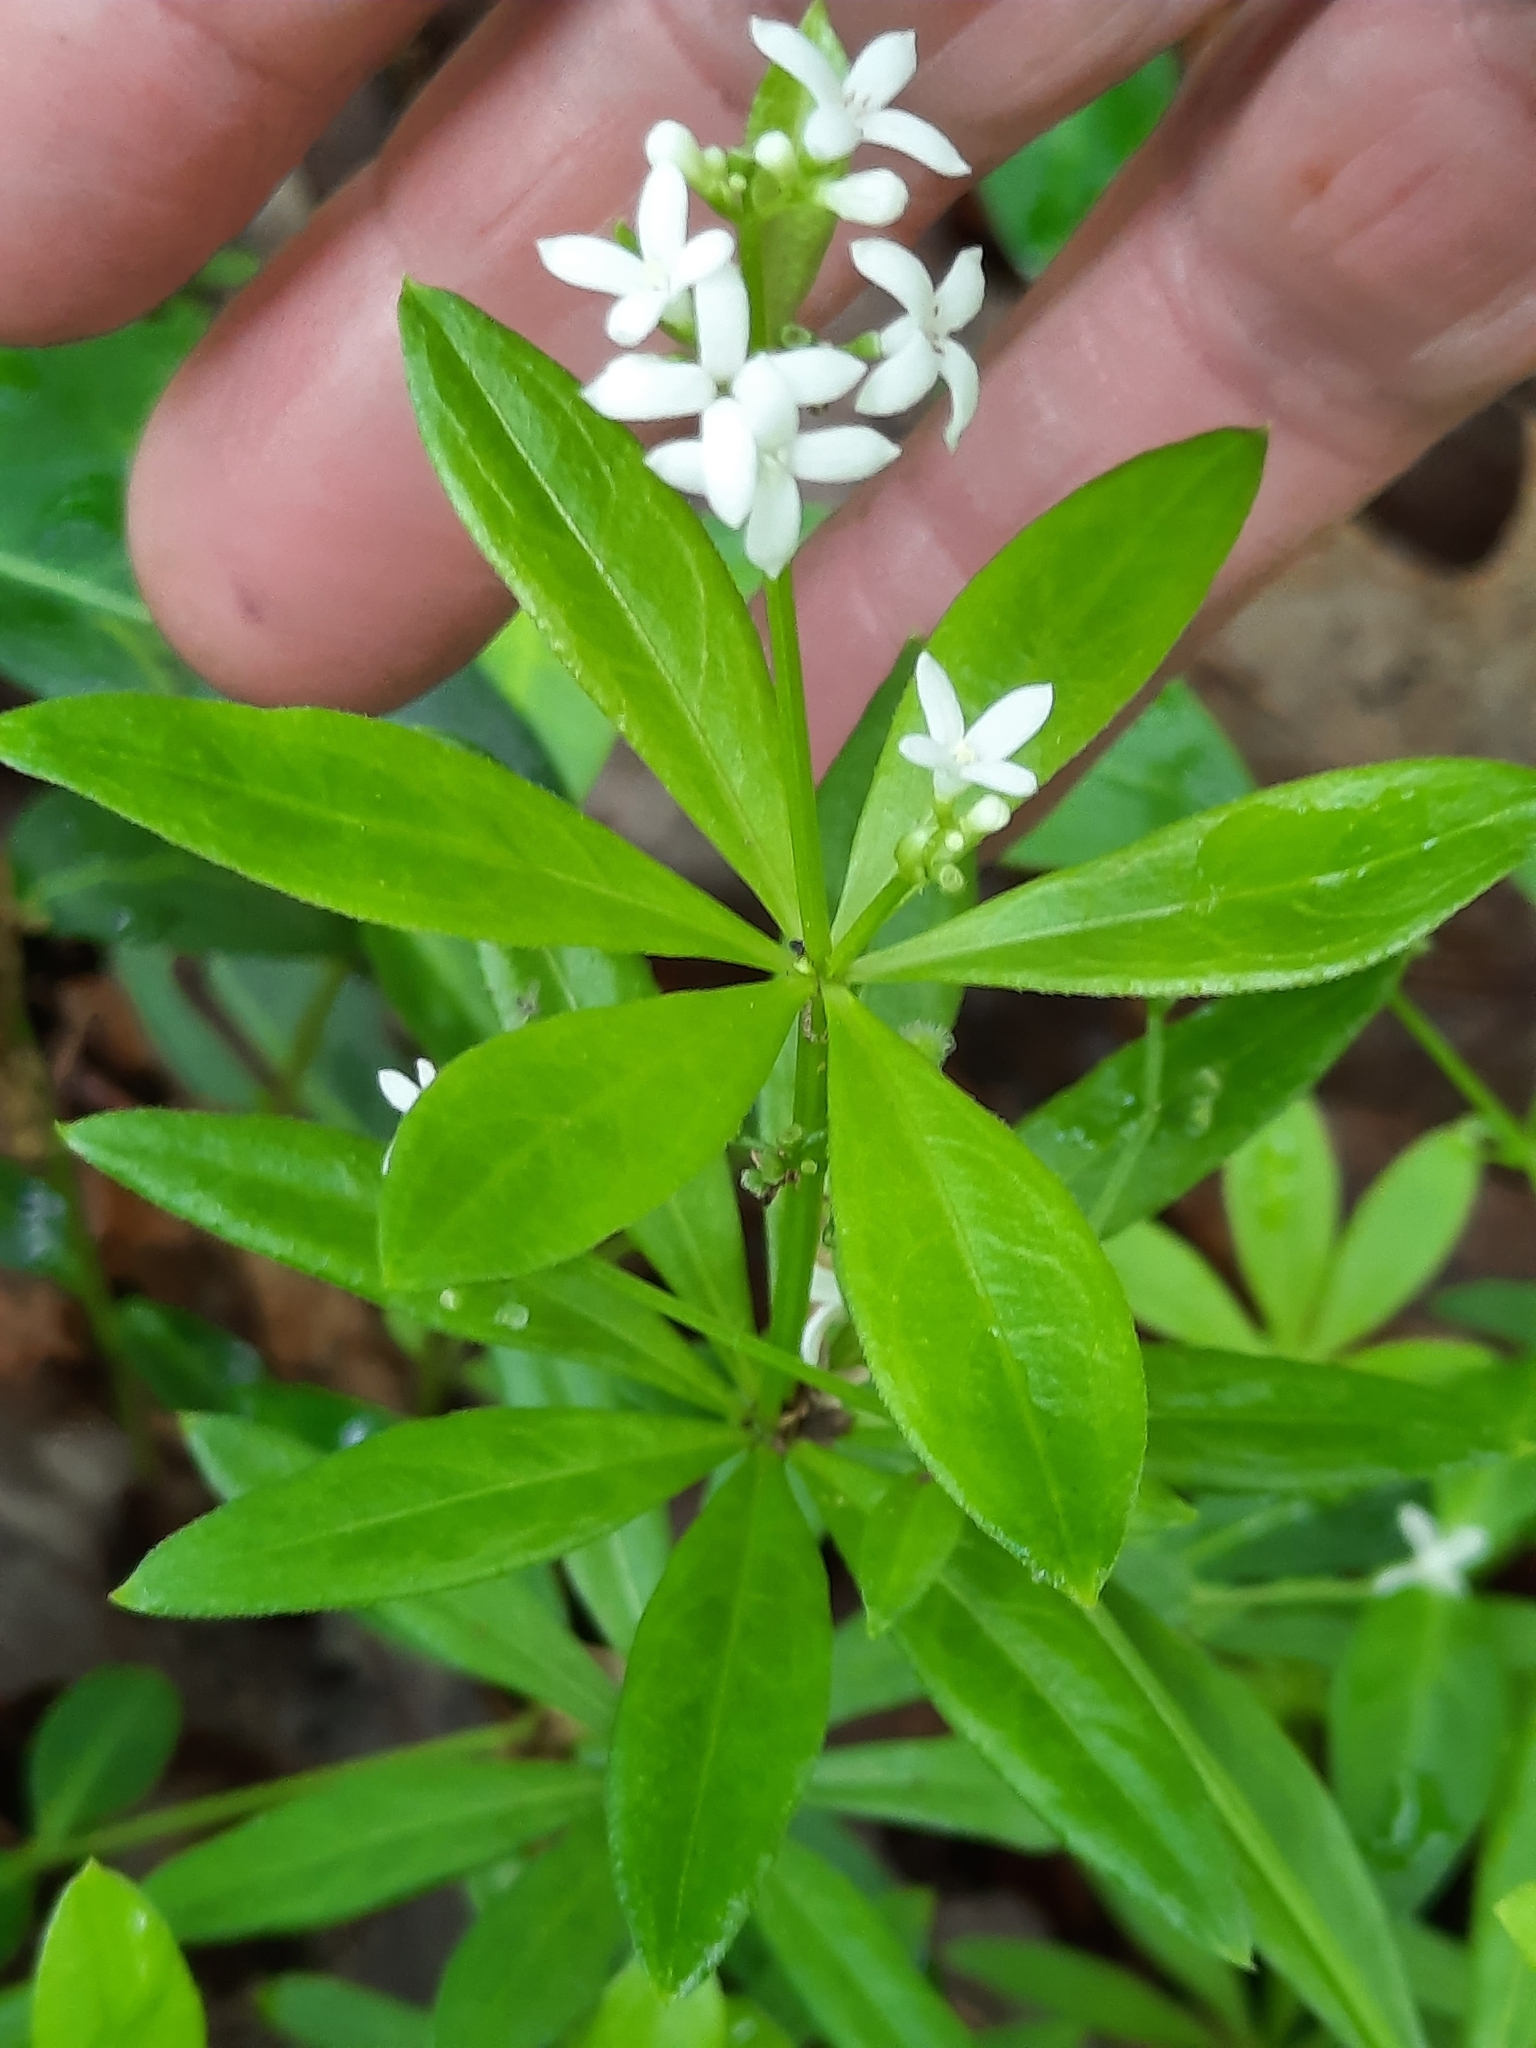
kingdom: Plantae
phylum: Tracheophyta
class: Magnoliopsida
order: Gentianales
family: Rubiaceae
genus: Galium
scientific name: Galium odoratum
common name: Sweet woodruff
